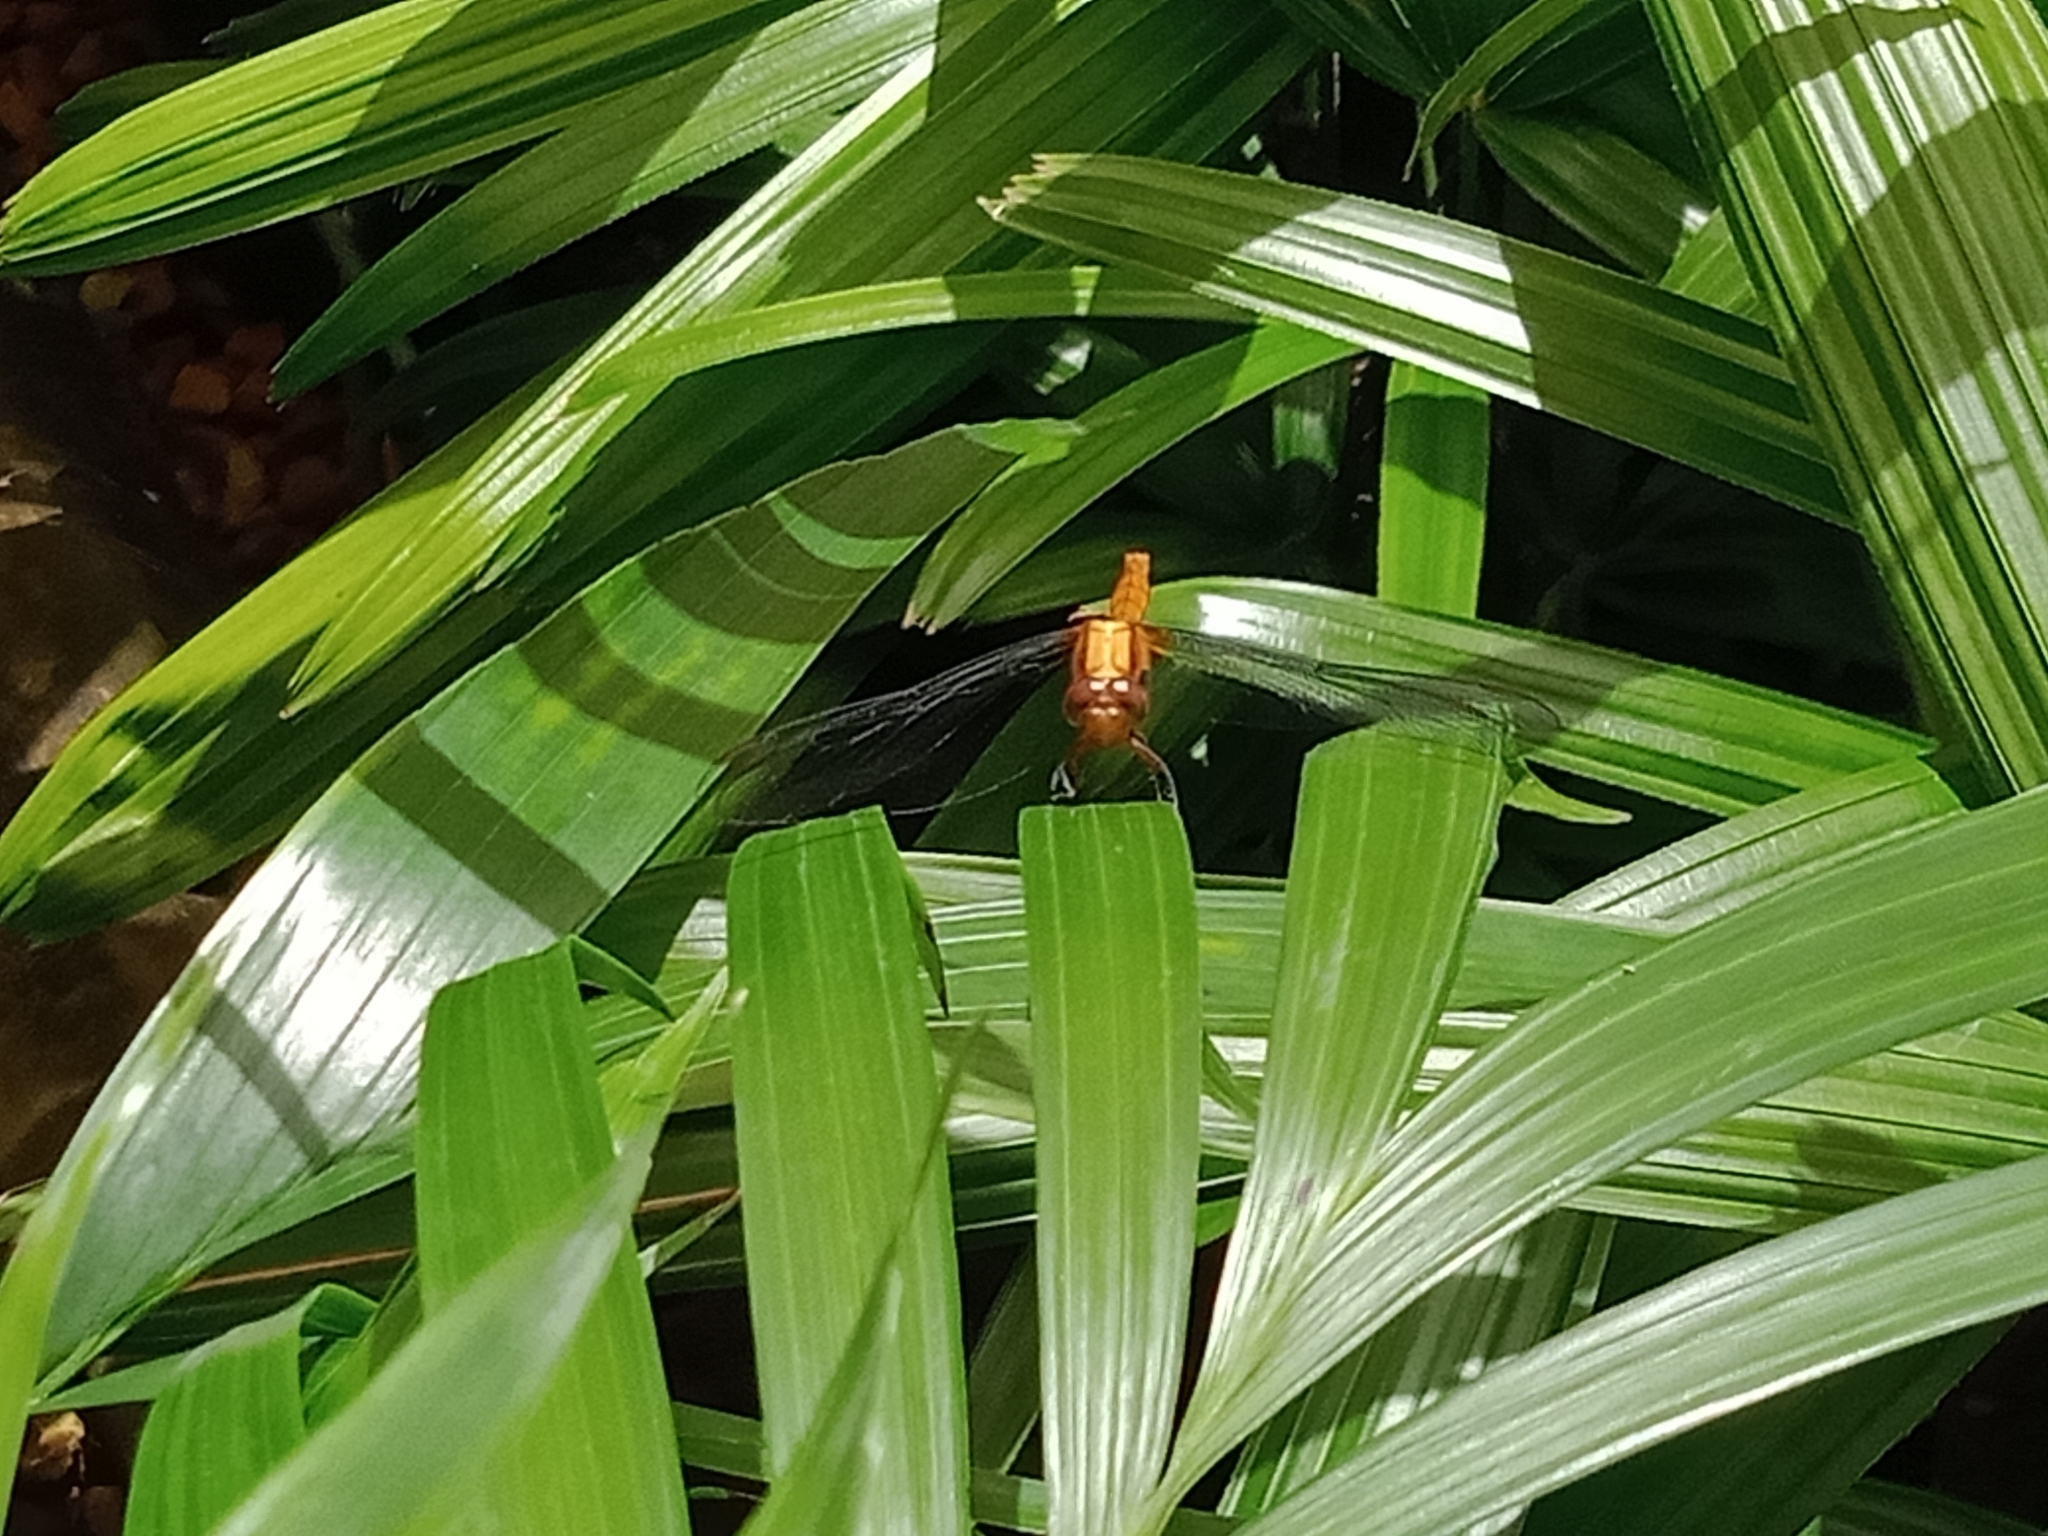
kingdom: Animalia
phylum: Arthropoda
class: Insecta
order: Odonata
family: Libellulidae
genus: Orthetrum
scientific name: Orthetrum villosovittatum
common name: Firery skimmer
